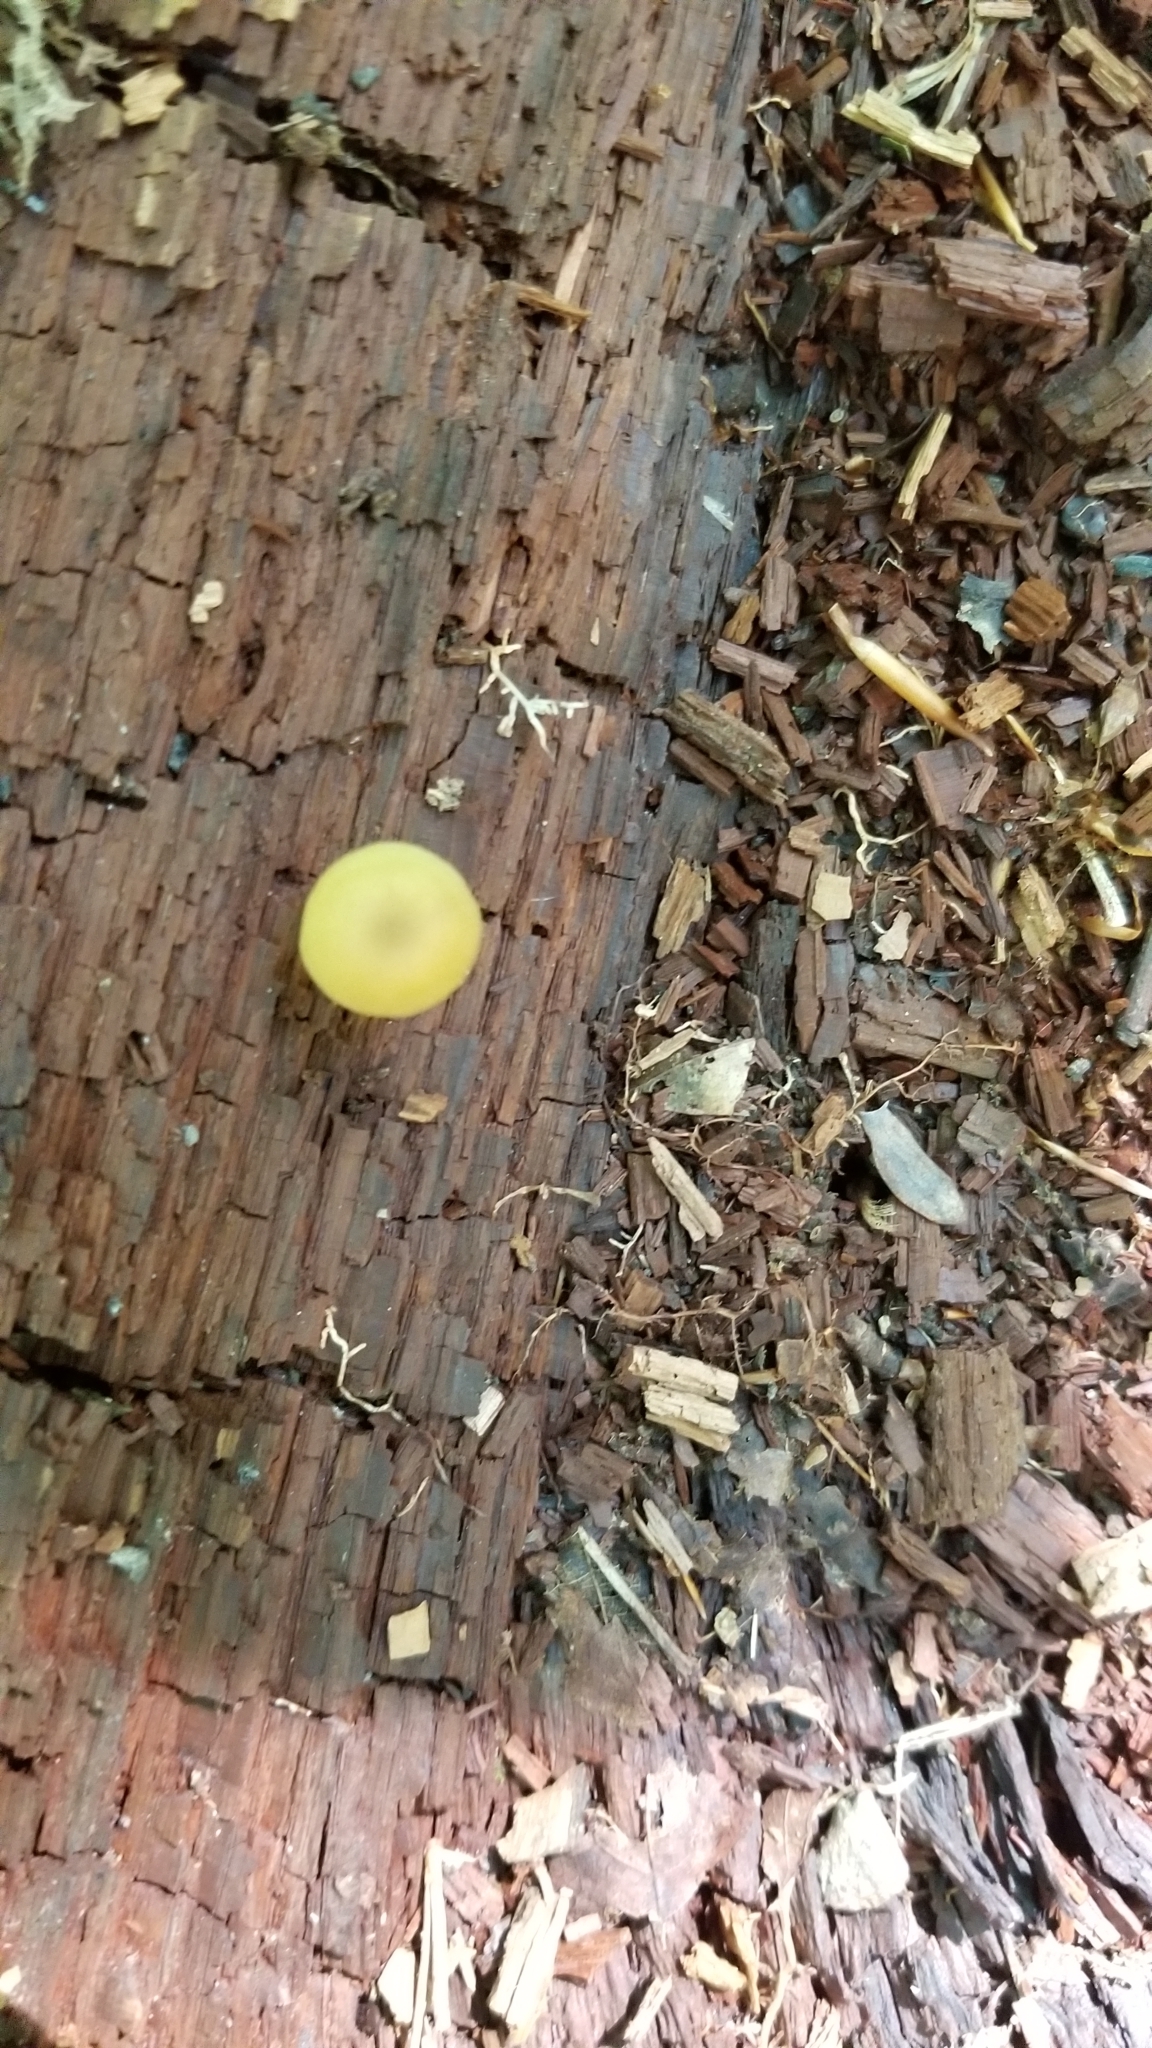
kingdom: Fungi
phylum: Basidiomycota
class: Agaricomycetes
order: Agaricales
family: Pluteaceae
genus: Pluteus
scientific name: Pluteus chrysophlebius
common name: Yellow deer mushroom
